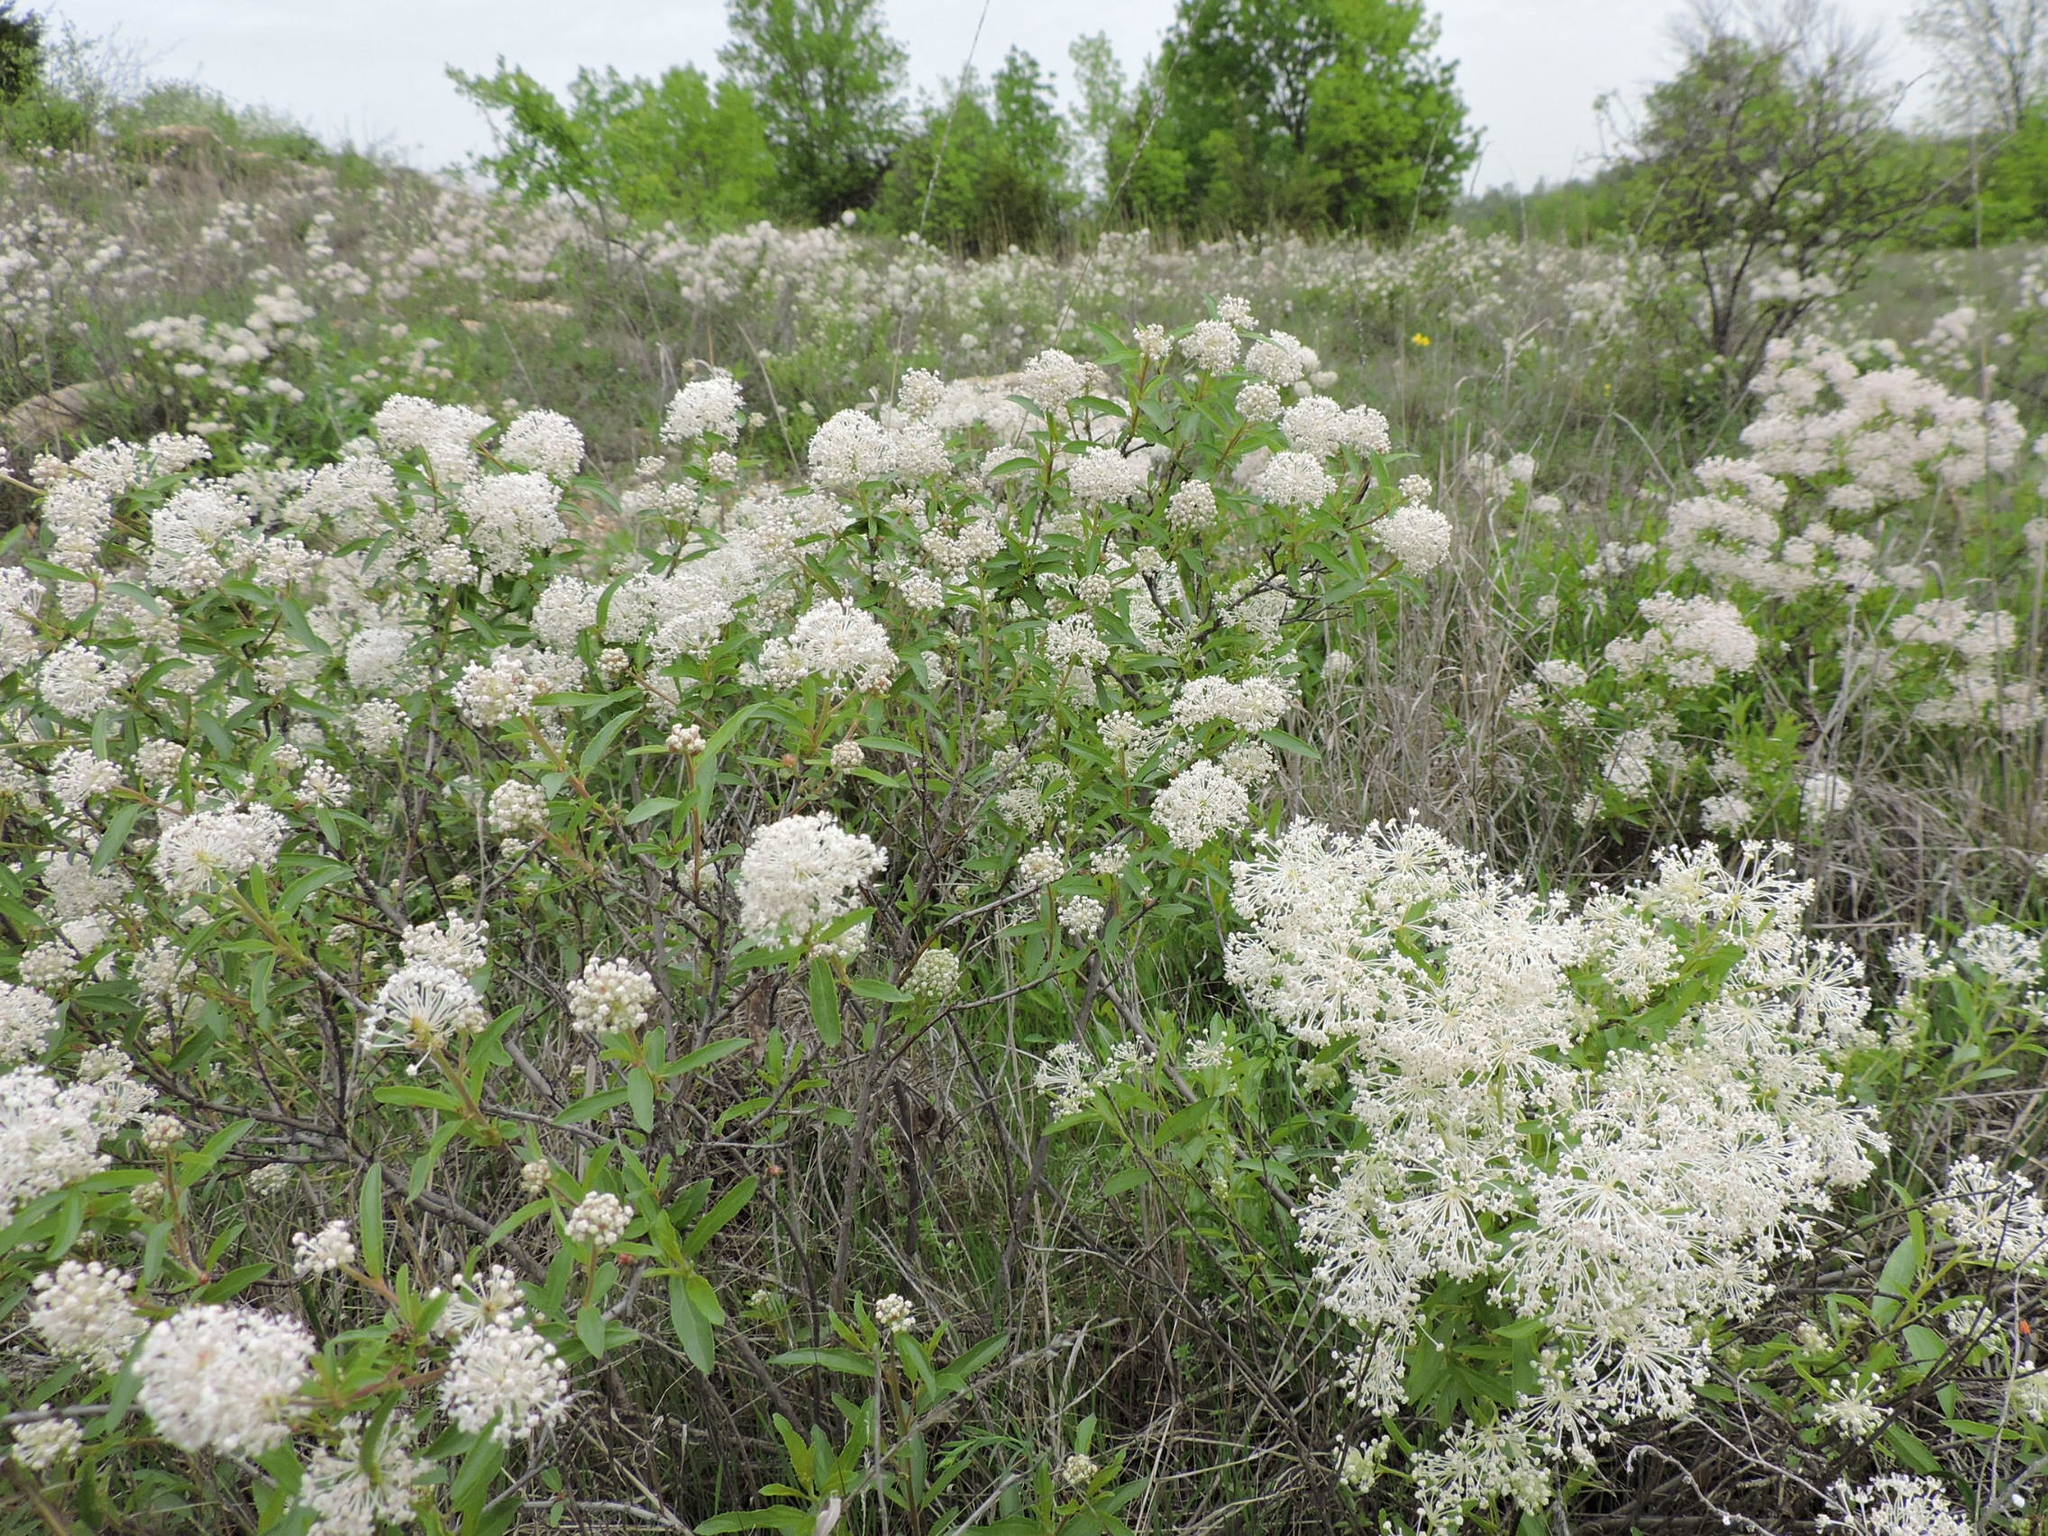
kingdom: Plantae
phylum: Tracheophyta
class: Magnoliopsida
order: Rosales
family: Rhamnaceae
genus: Ceanothus
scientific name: Ceanothus herbaceus
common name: Inland ceanothus
